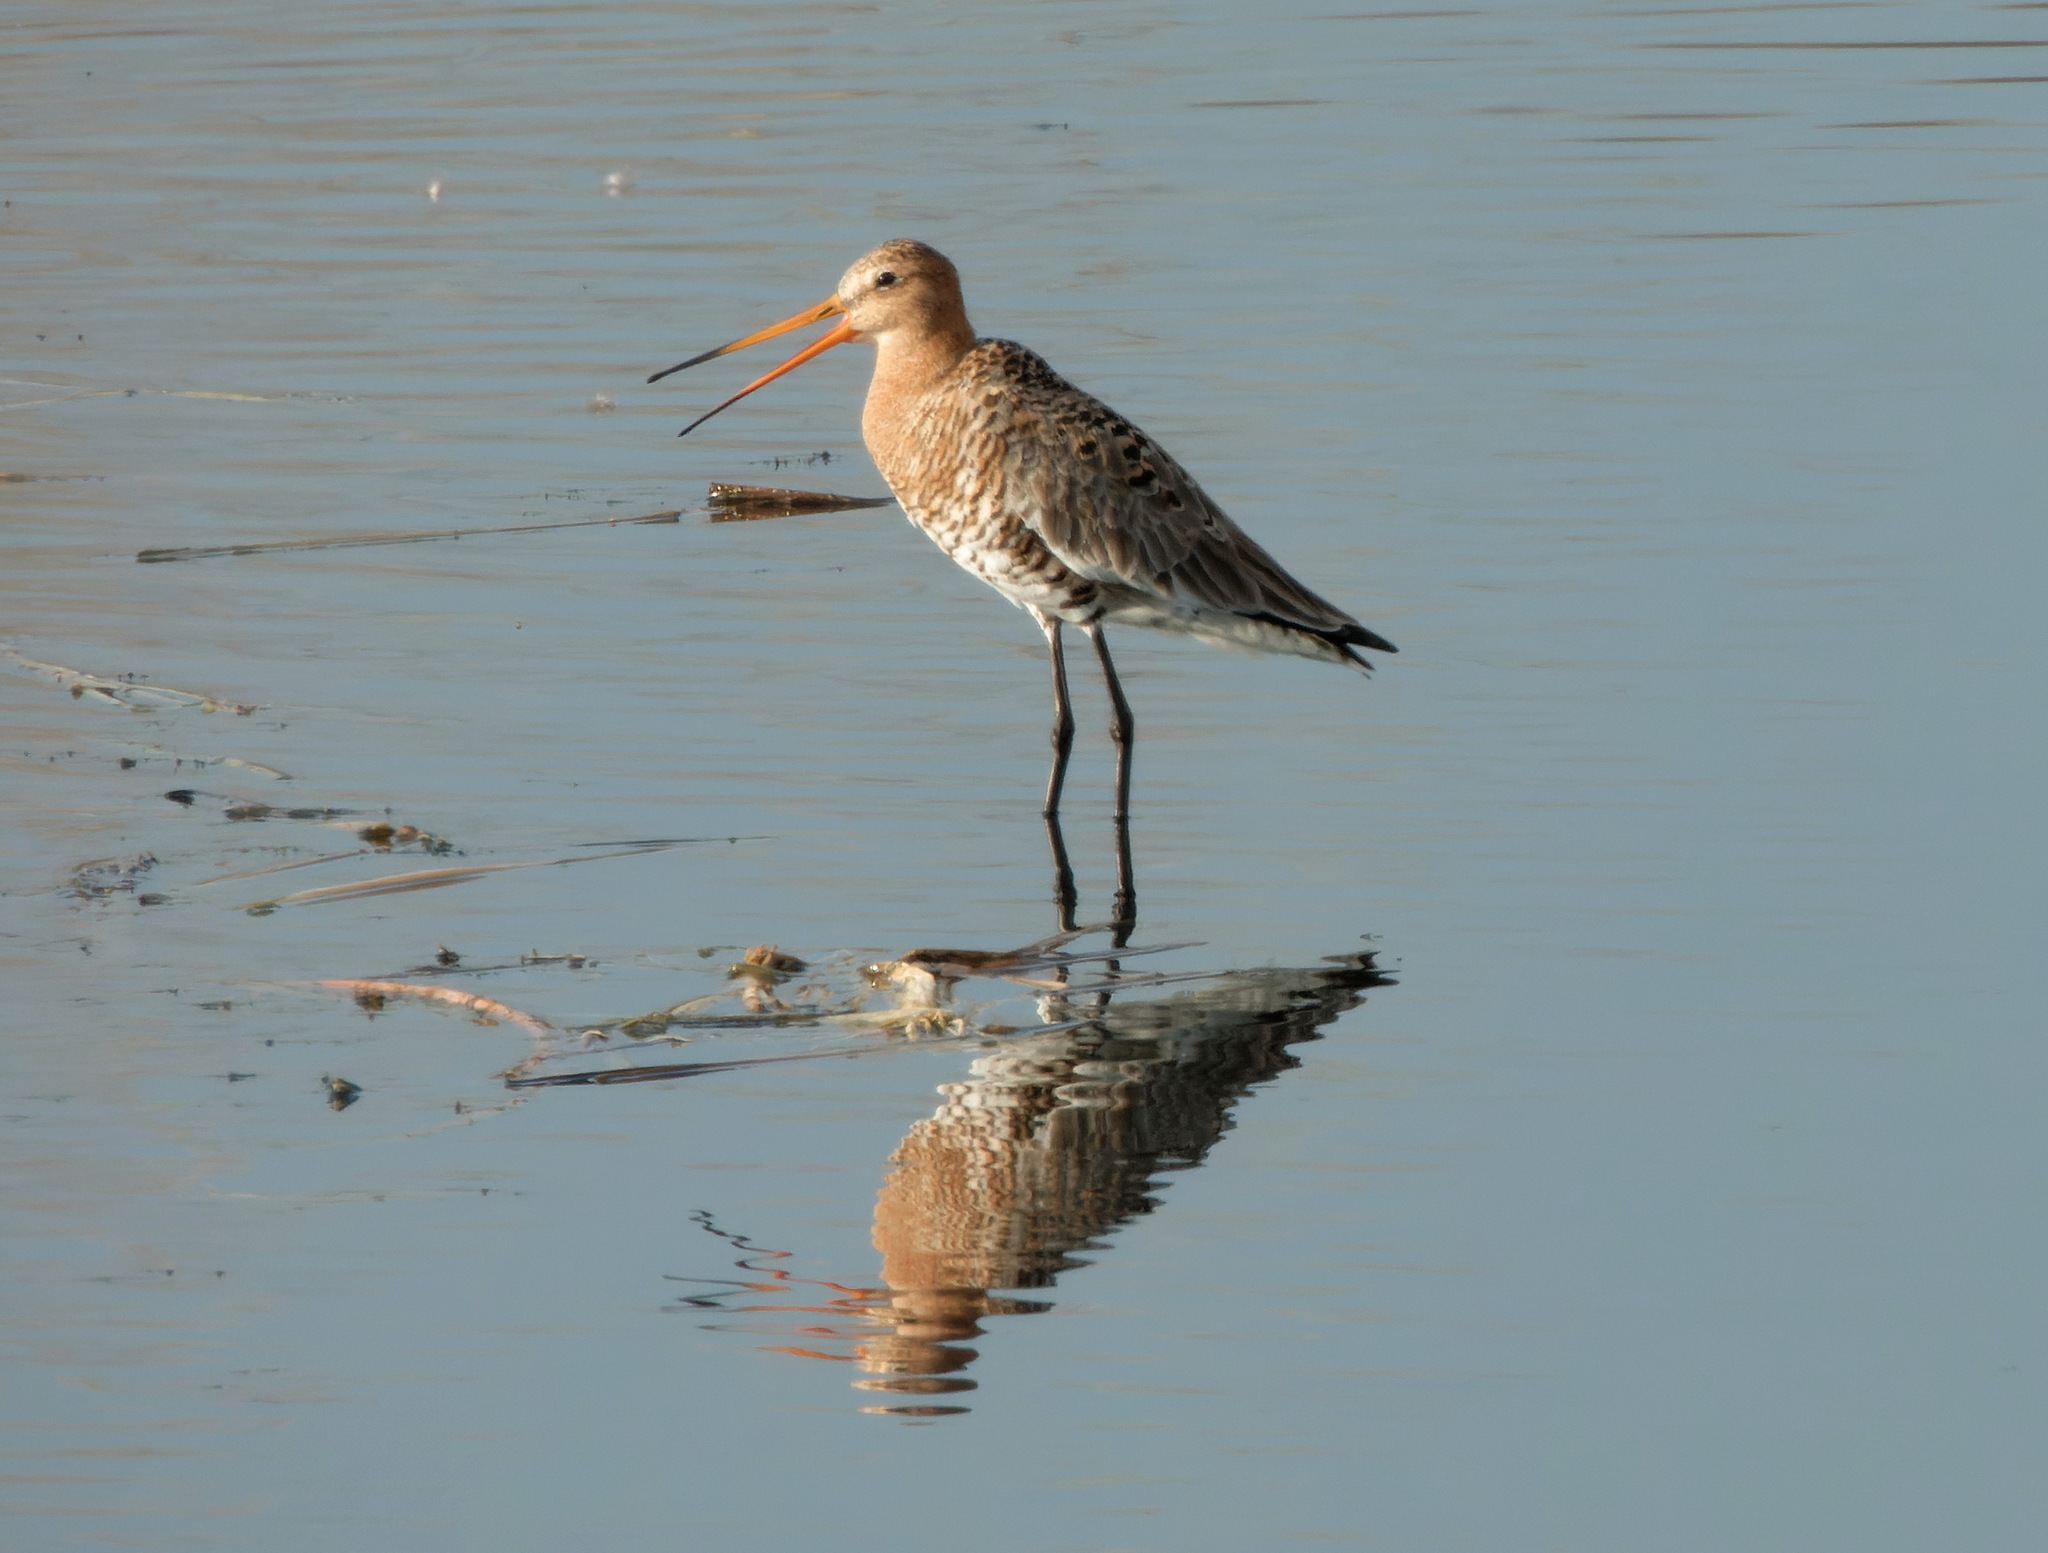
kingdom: Animalia
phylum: Chordata
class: Aves
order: Charadriiformes
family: Scolopacidae
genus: Limosa
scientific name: Limosa limosa
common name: Black-tailed godwit
